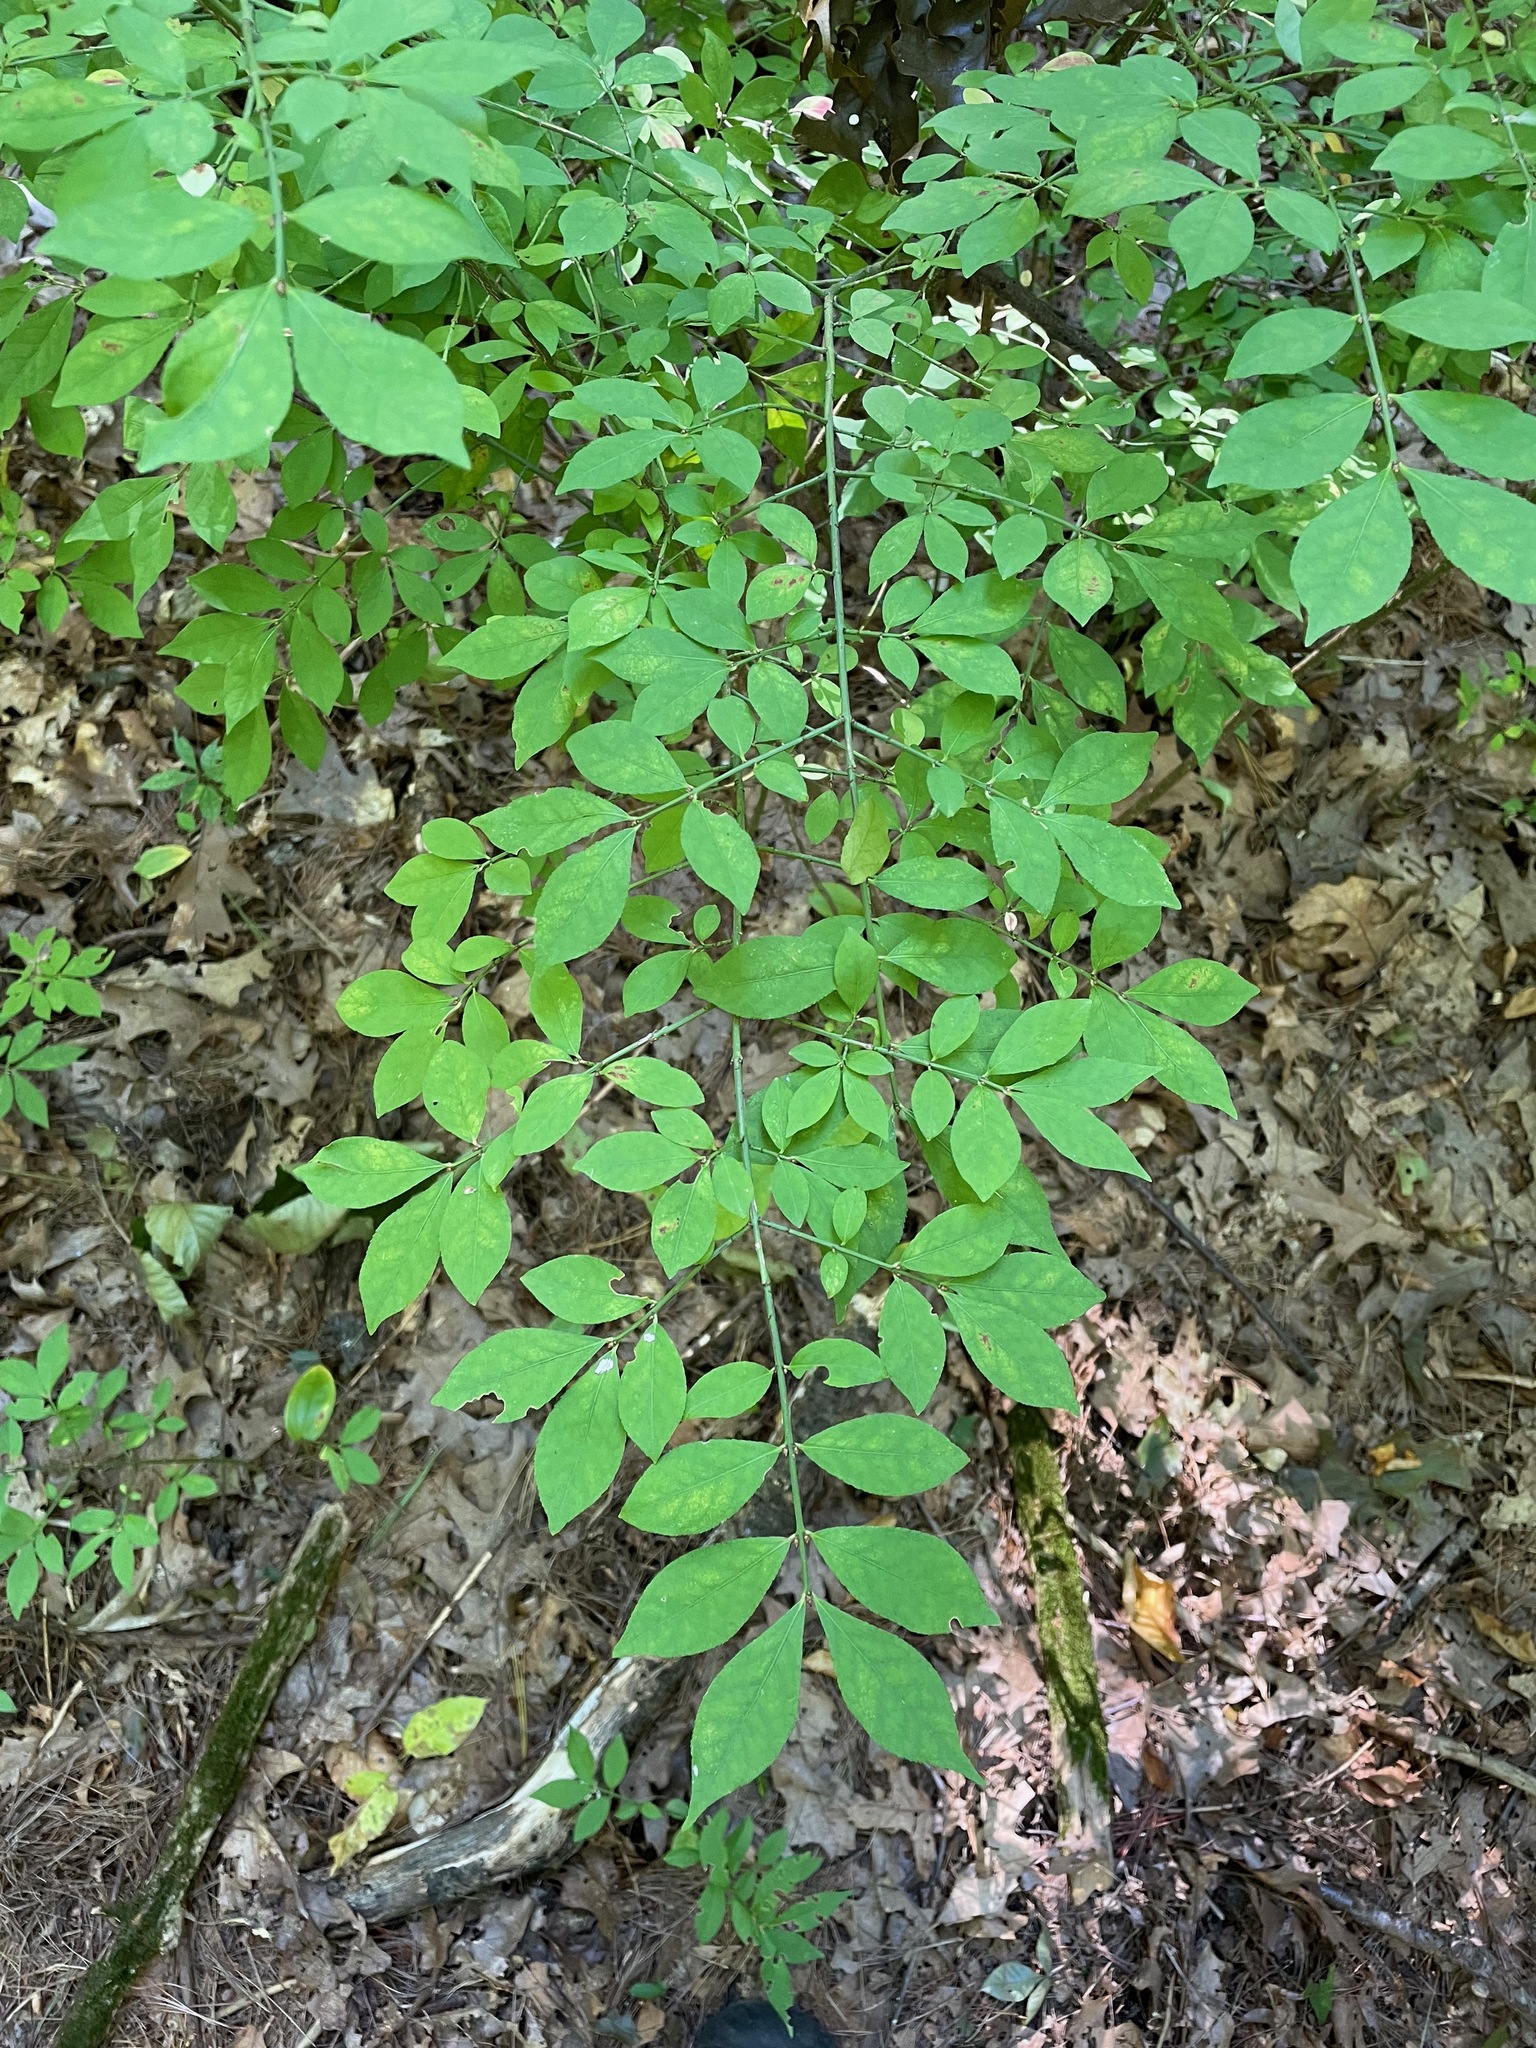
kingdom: Plantae
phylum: Tracheophyta
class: Magnoliopsida
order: Celastrales
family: Celastraceae
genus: Euonymus
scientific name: Euonymus alatus
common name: Winged euonymus
